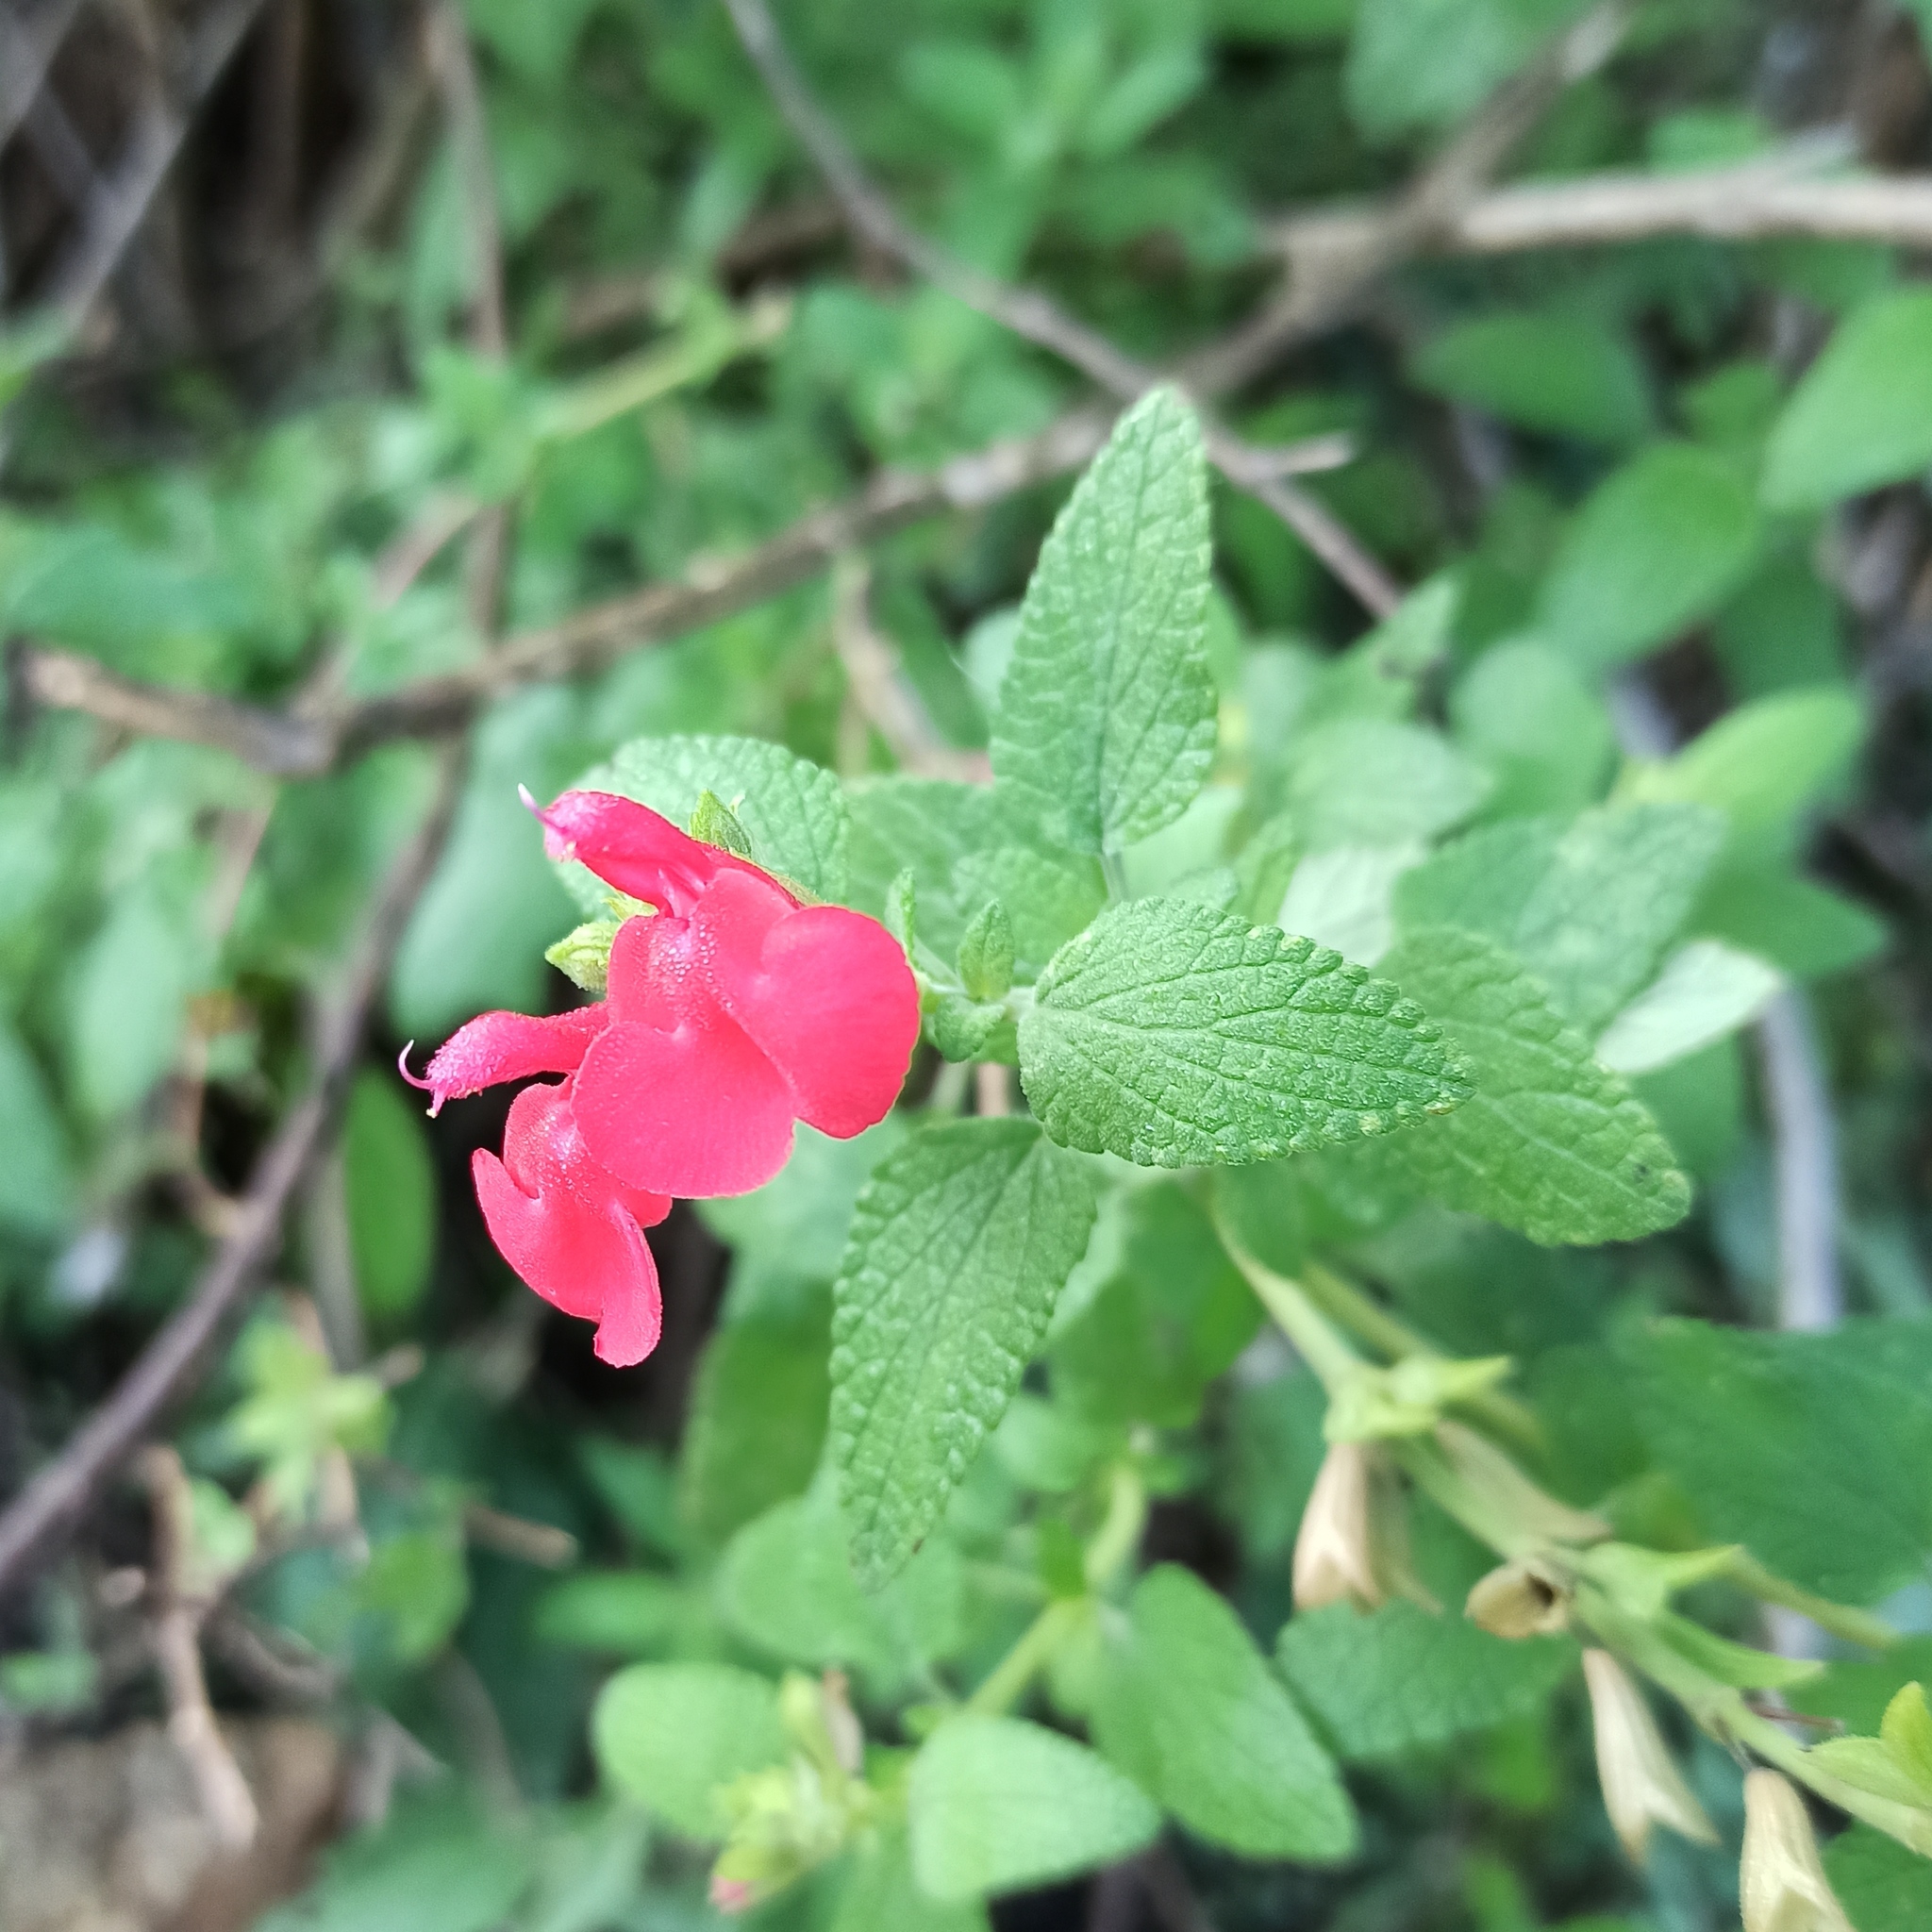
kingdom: Plantae
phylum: Tracheophyta
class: Magnoliopsida
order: Lamiales
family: Lamiaceae
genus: Salvia
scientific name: Salvia microphylla
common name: Baby sage
